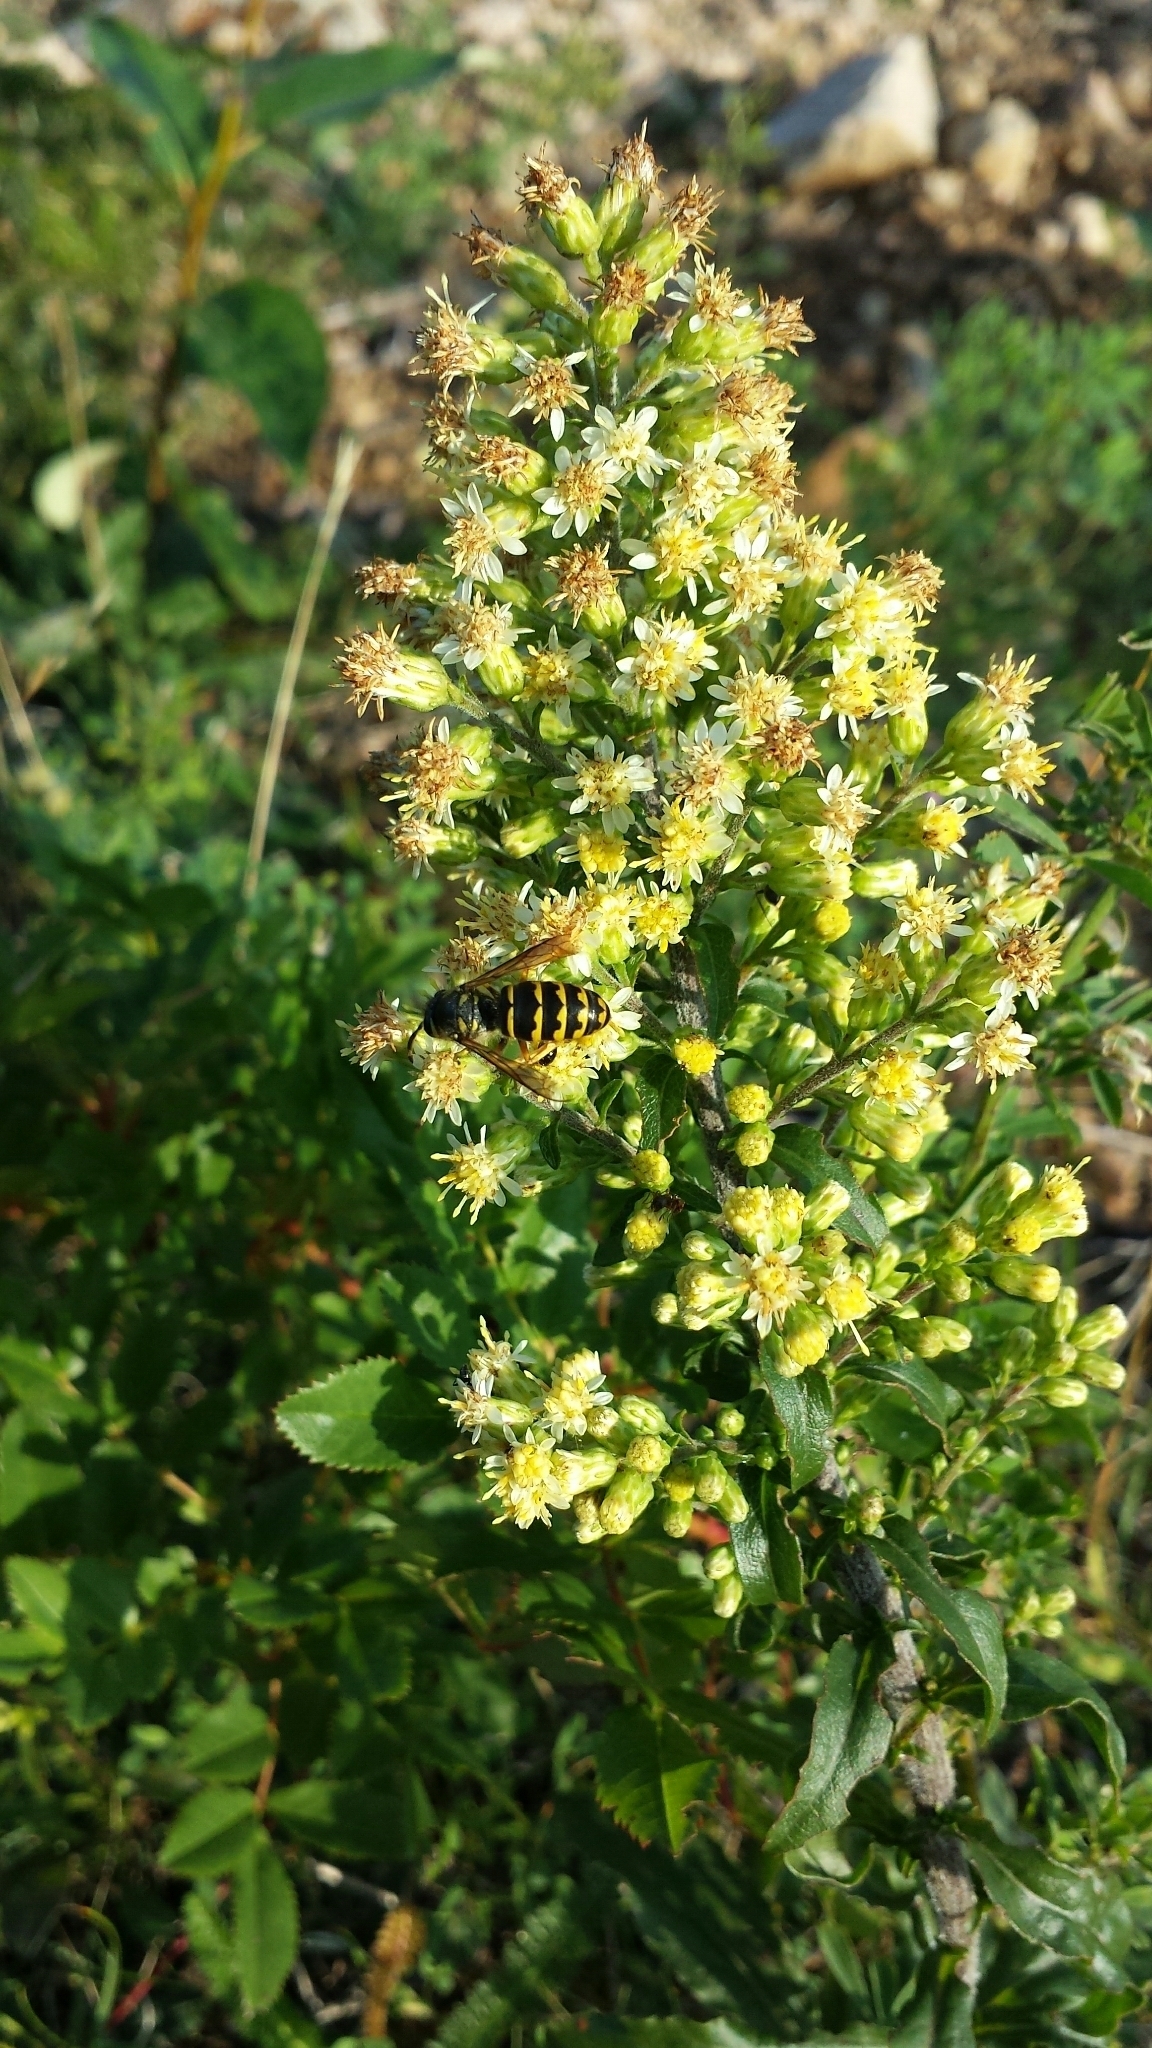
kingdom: Animalia
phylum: Arthropoda
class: Insecta
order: Hymenoptera
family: Vespidae
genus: Dolichovespula
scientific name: Dolichovespula arenaria
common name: Aerial yellowjacket
